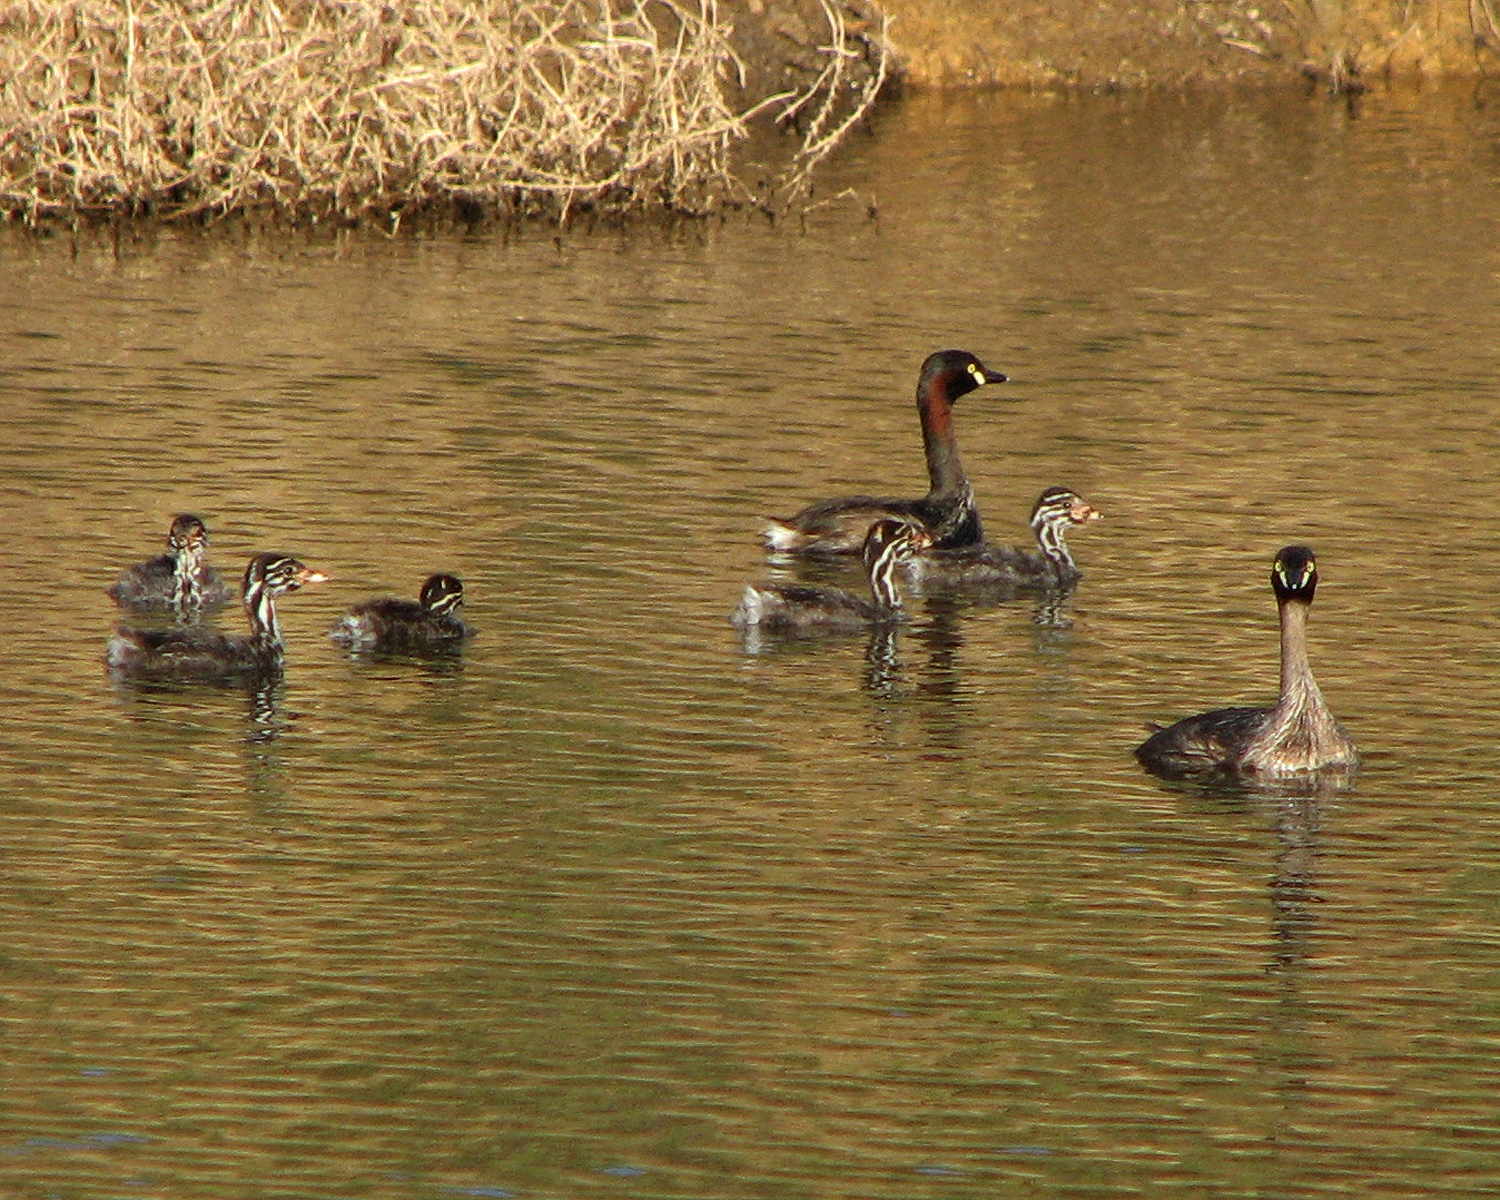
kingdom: Animalia
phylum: Chordata
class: Aves
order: Podicipediformes
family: Podicipedidae
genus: Tachybaptus
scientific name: Tachybaptus novaehollandiae
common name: Australasian grebe
